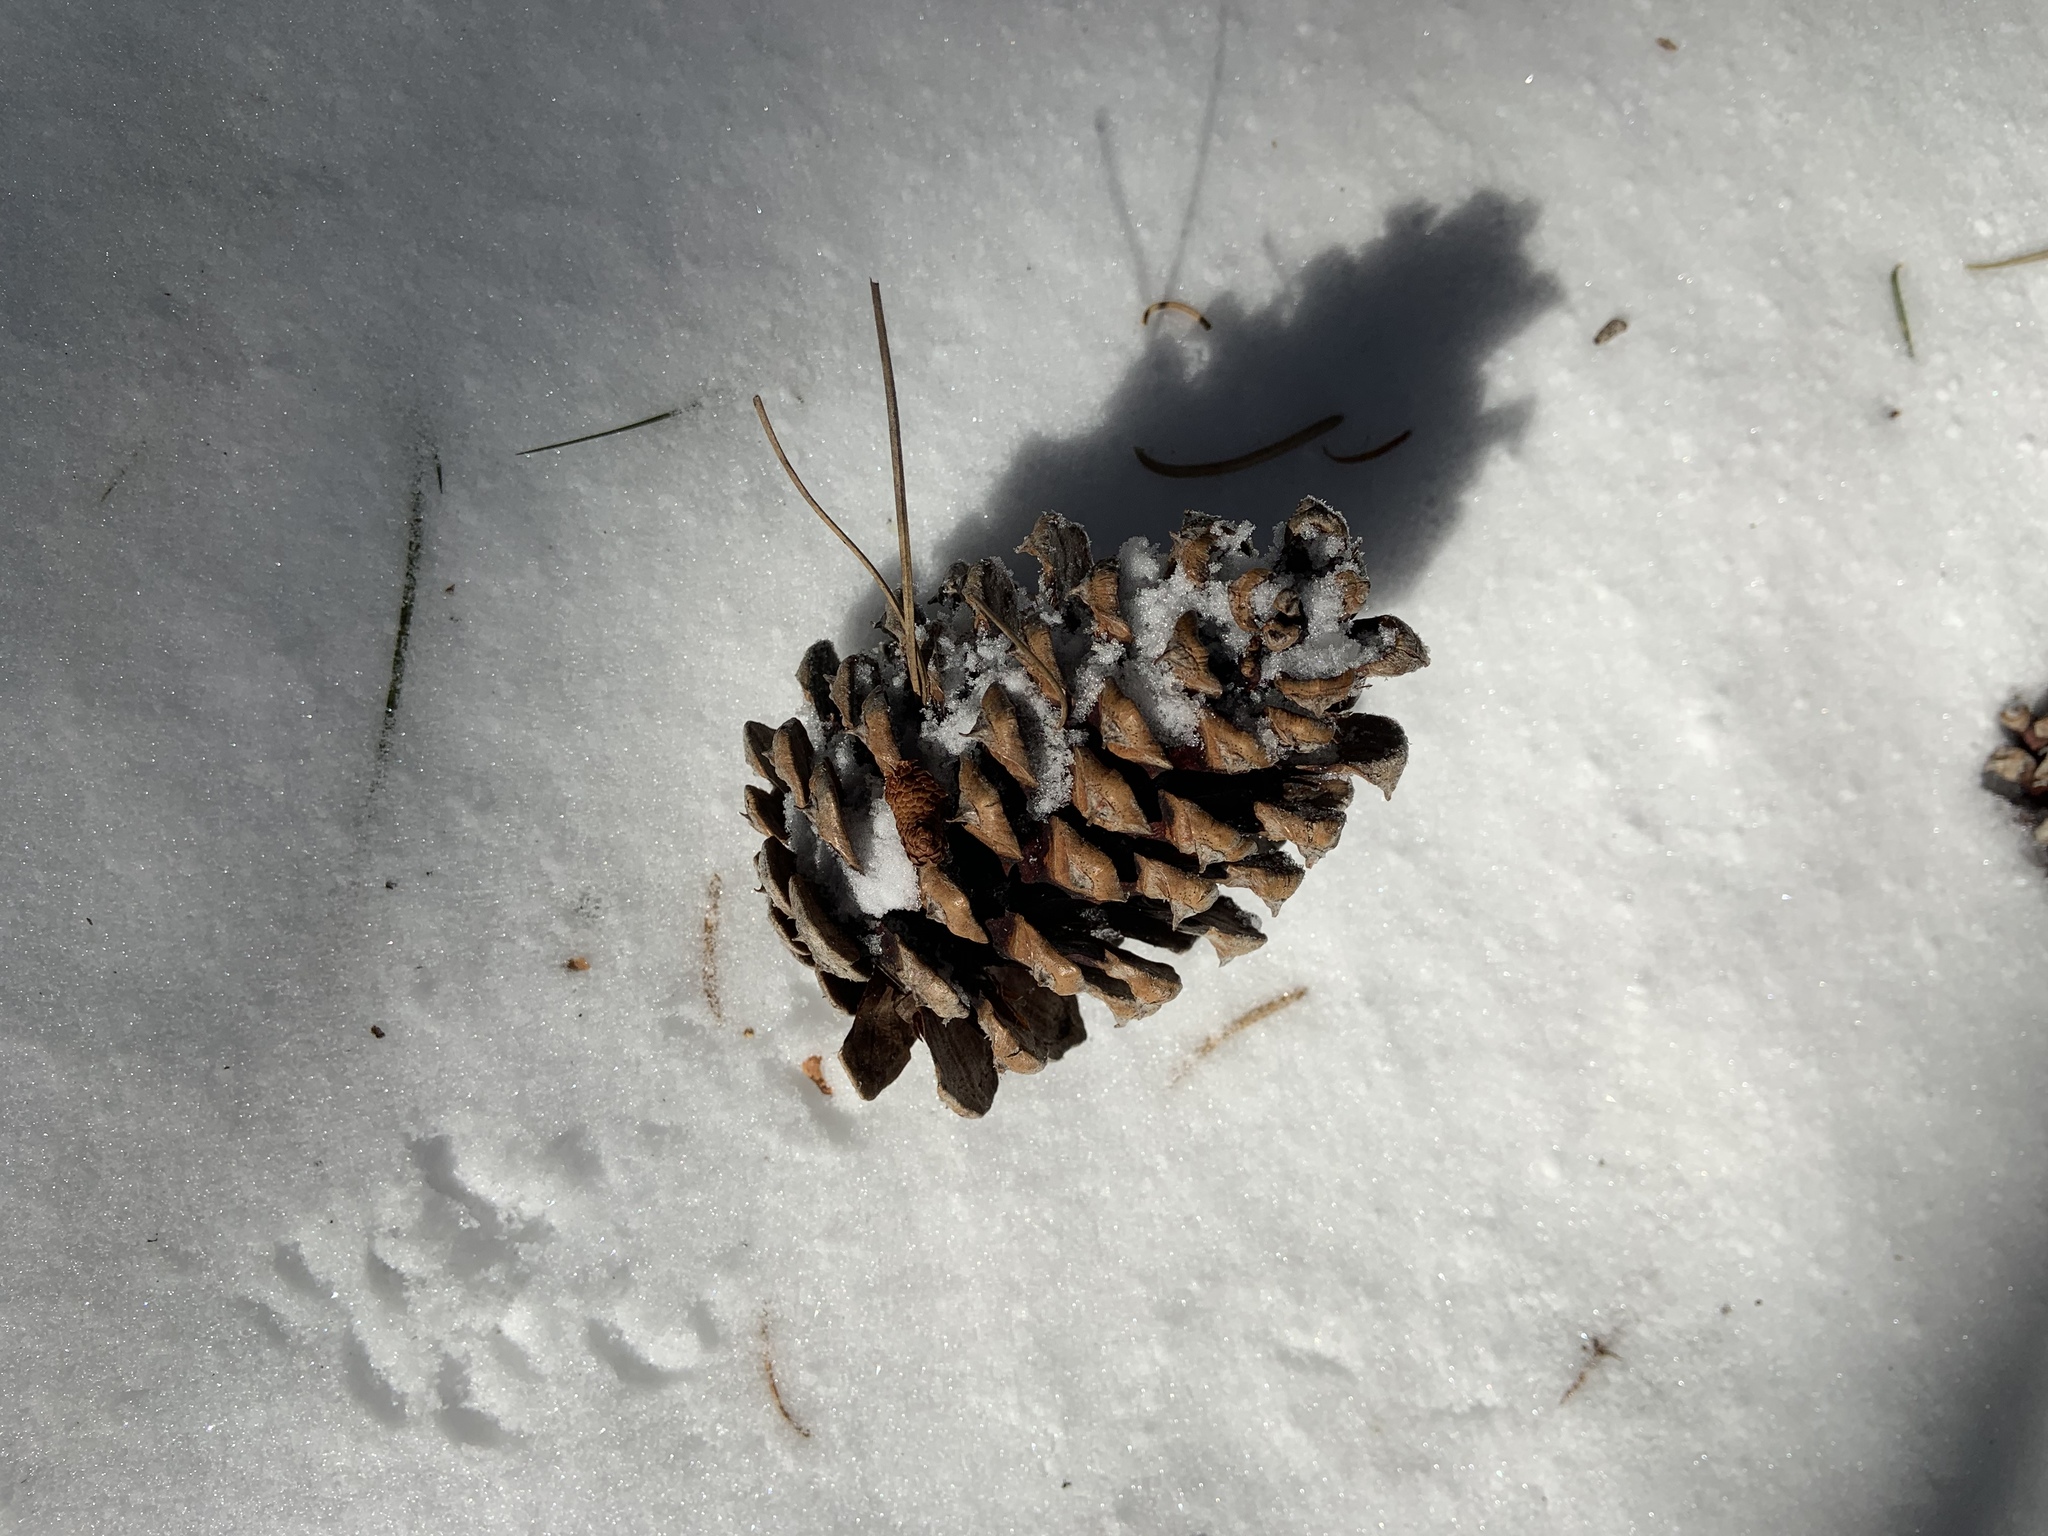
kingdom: Plantae
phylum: Tracheophyta
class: Pinopsida
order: Pinales
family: Pinaceae
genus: Pinus
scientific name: Pinus ponderosa
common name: Western yellow-pine
